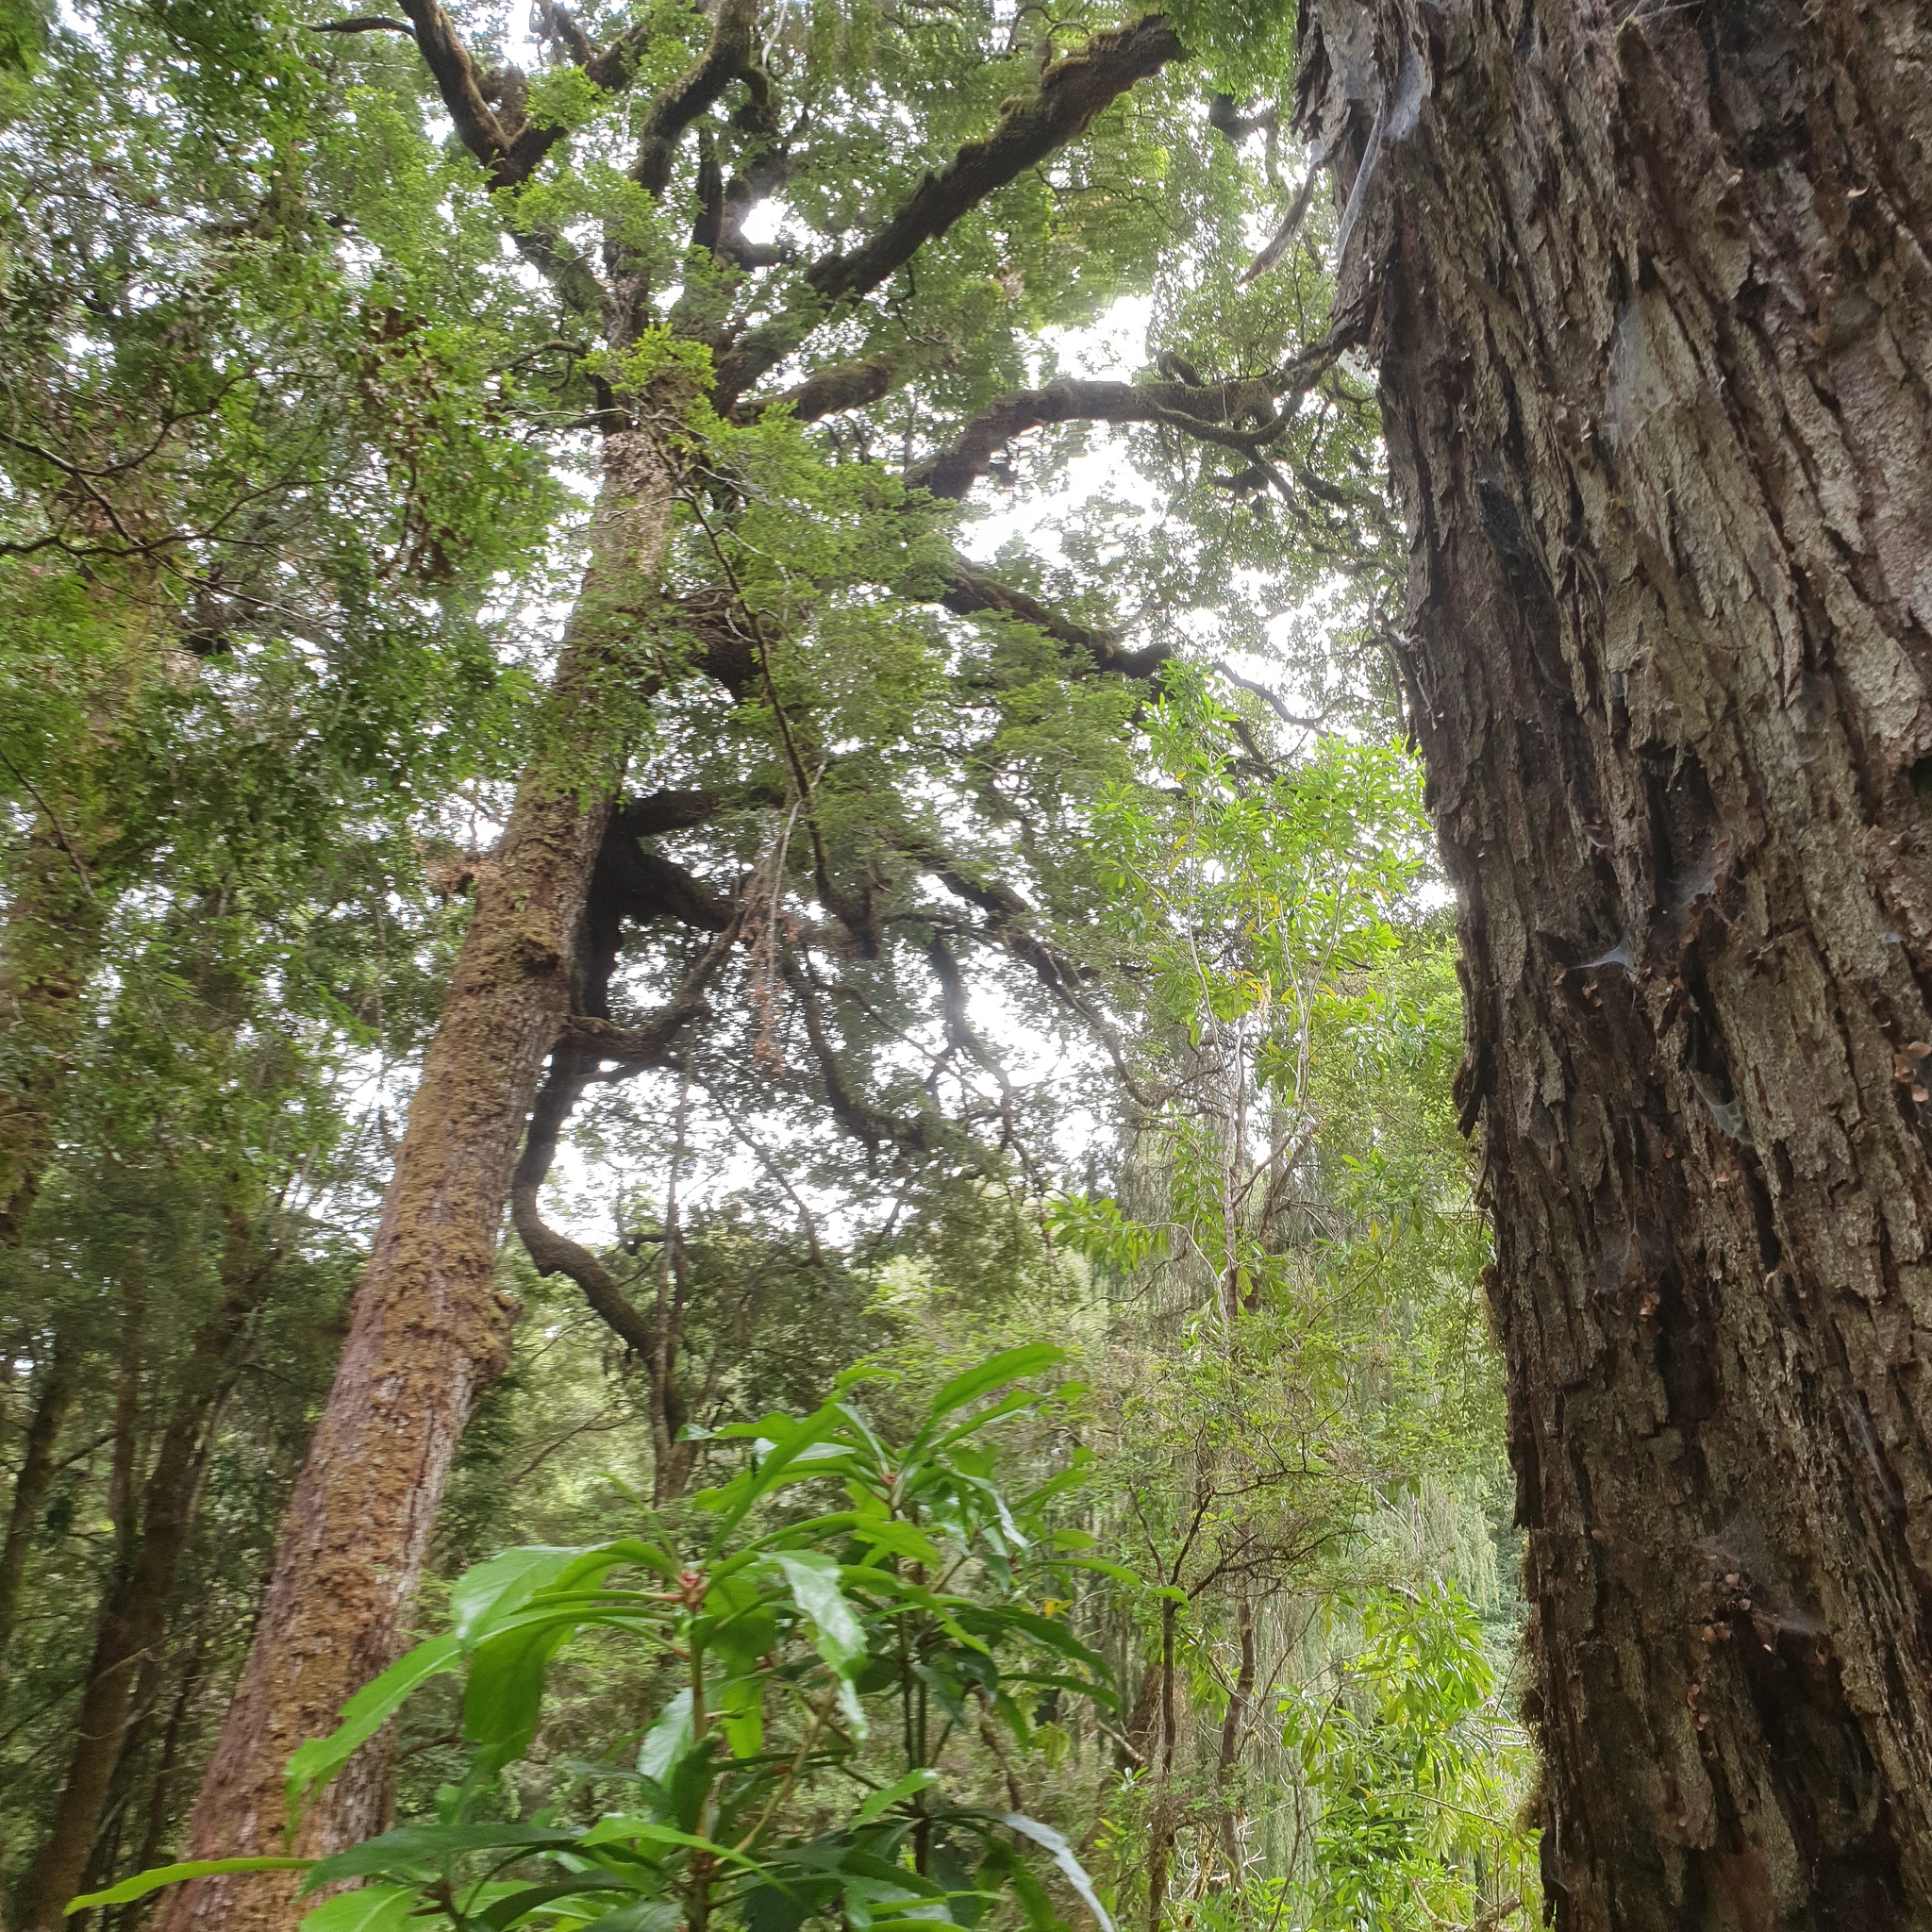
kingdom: Plantae
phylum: Tracheophyta
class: Magnoliopsida
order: Fagales
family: Nothofagaceae
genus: Nothofagus
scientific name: Nothofagus cunninghamii
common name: Myrtle beech
